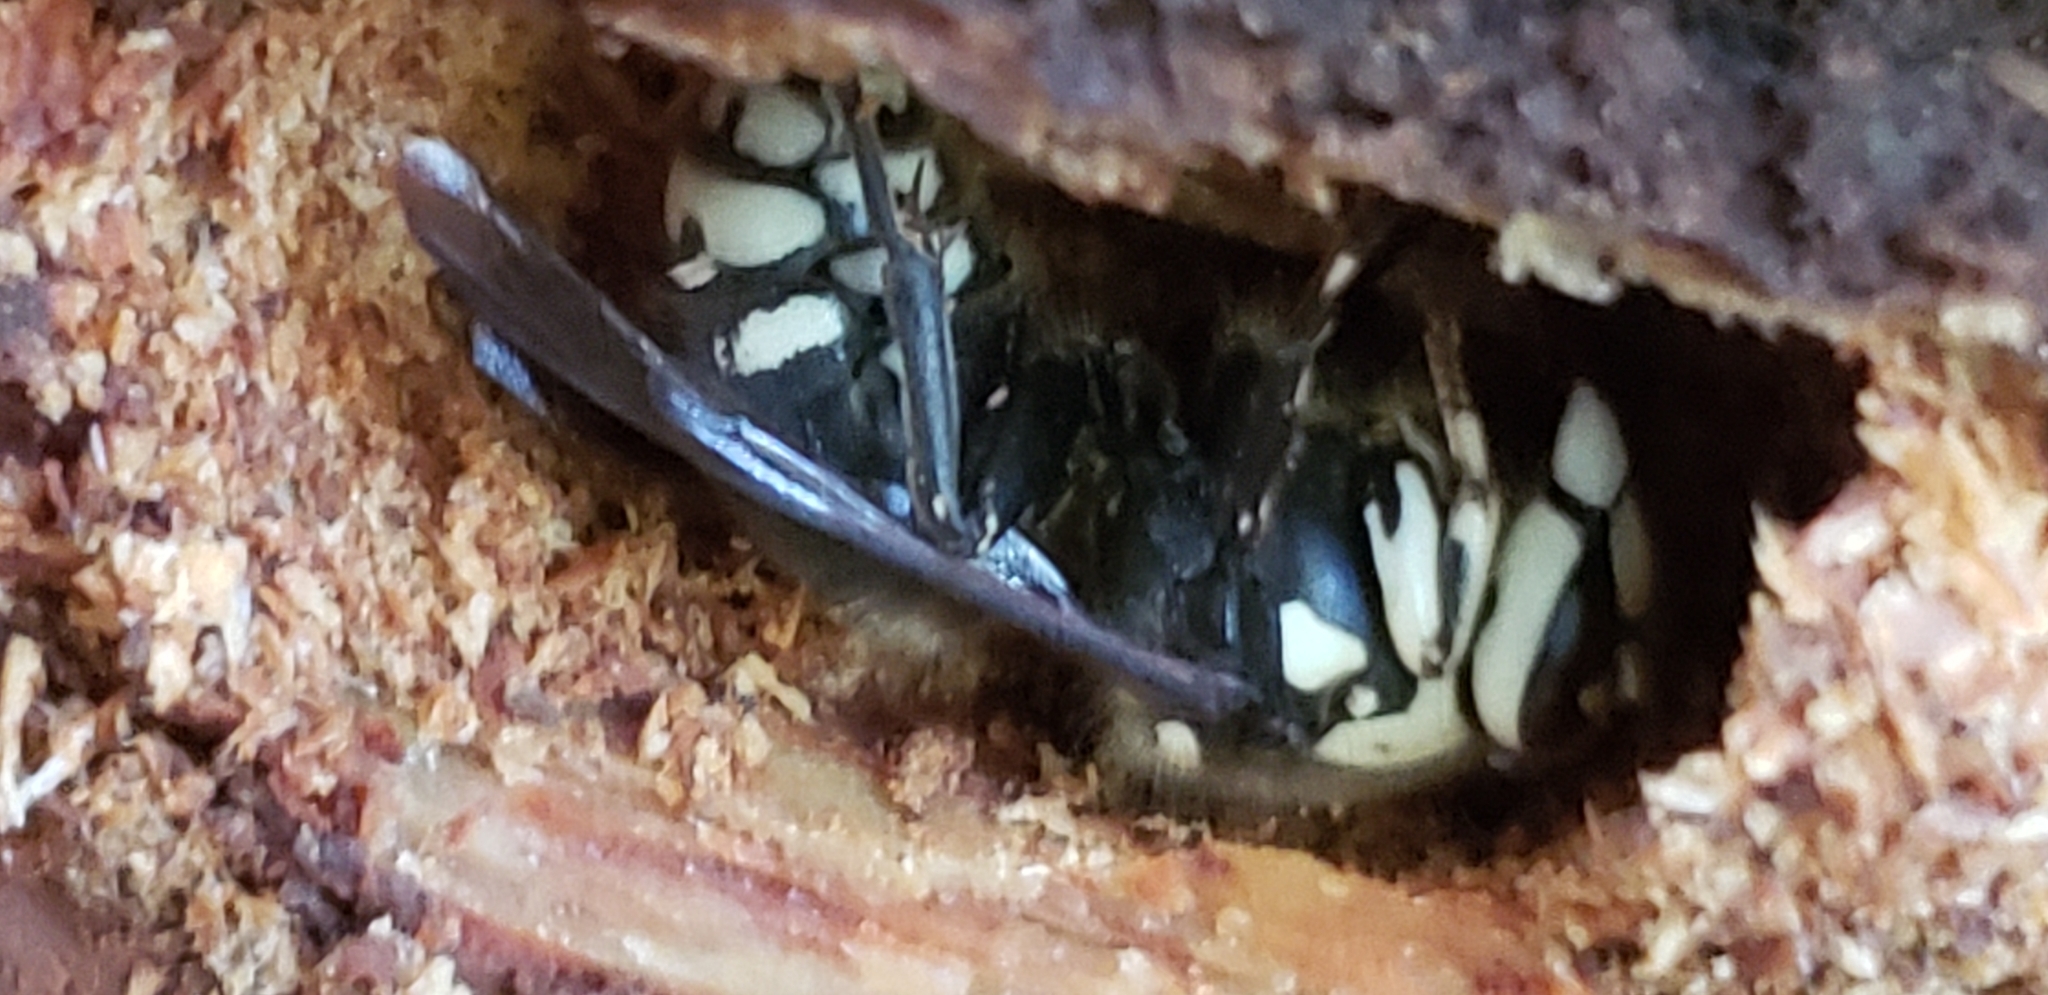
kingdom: Animalia
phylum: Arthropoda
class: Insecta
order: Hymenoptera
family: Vespidae
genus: Dolichovespula
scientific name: Dolichovespula maculata
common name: Bald-faced hornet
